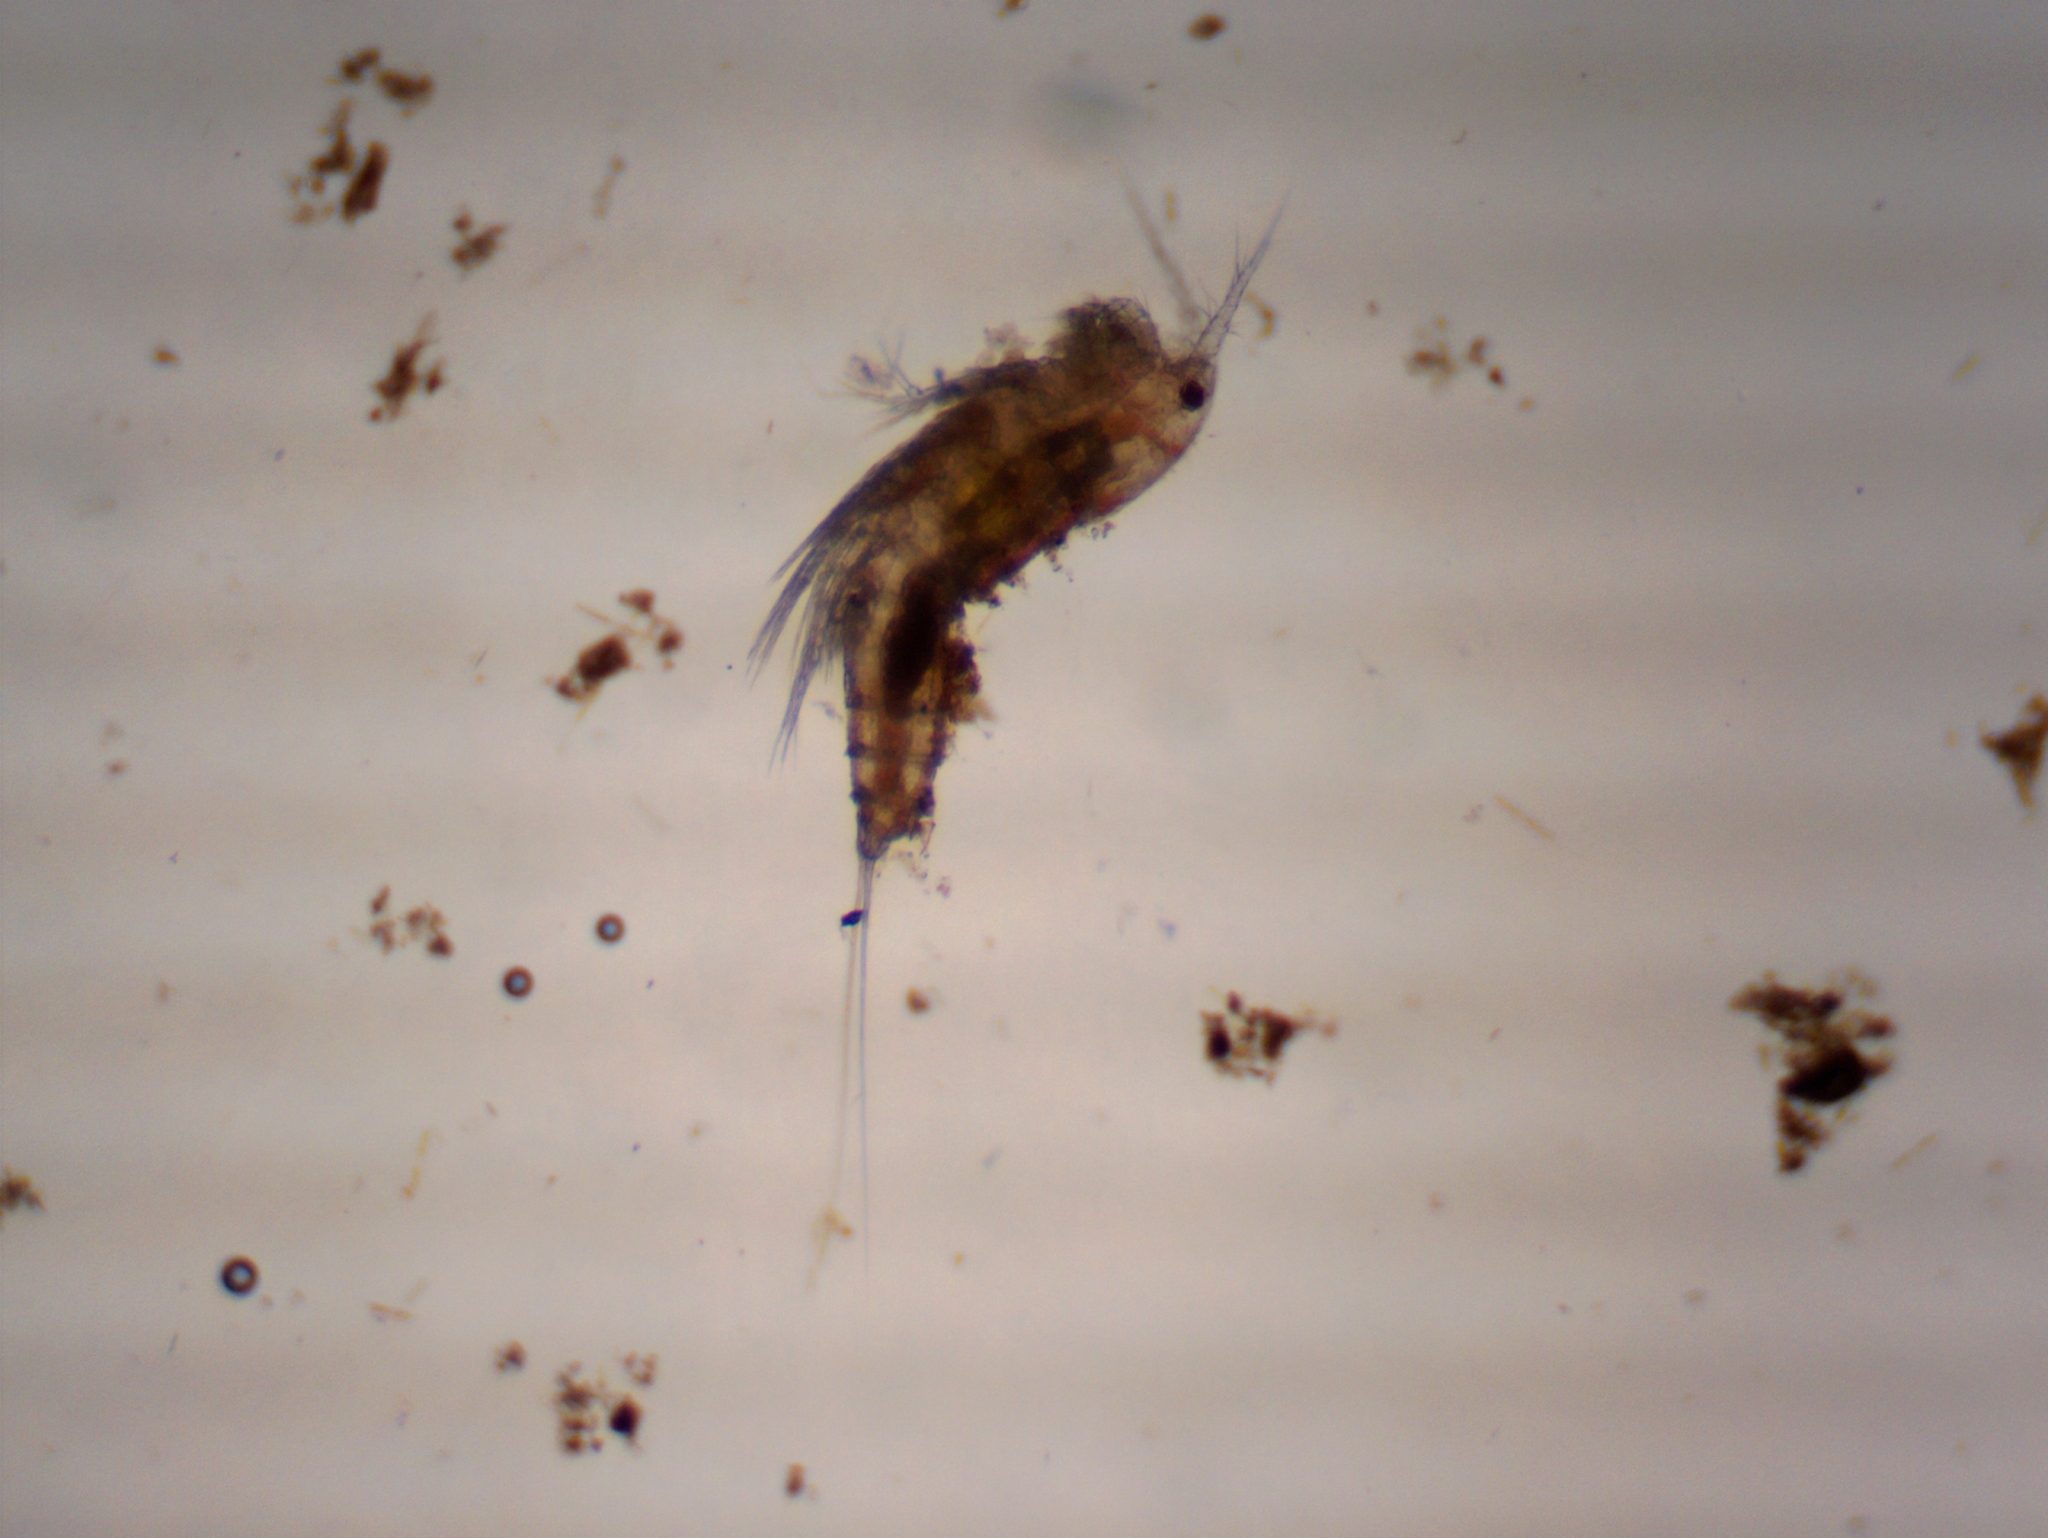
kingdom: Animalia
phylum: Arthropoda
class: Copepoda
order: Harpacticoida
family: Canthocamptidae
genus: Attheyella
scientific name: Attheyella illinoisensis
